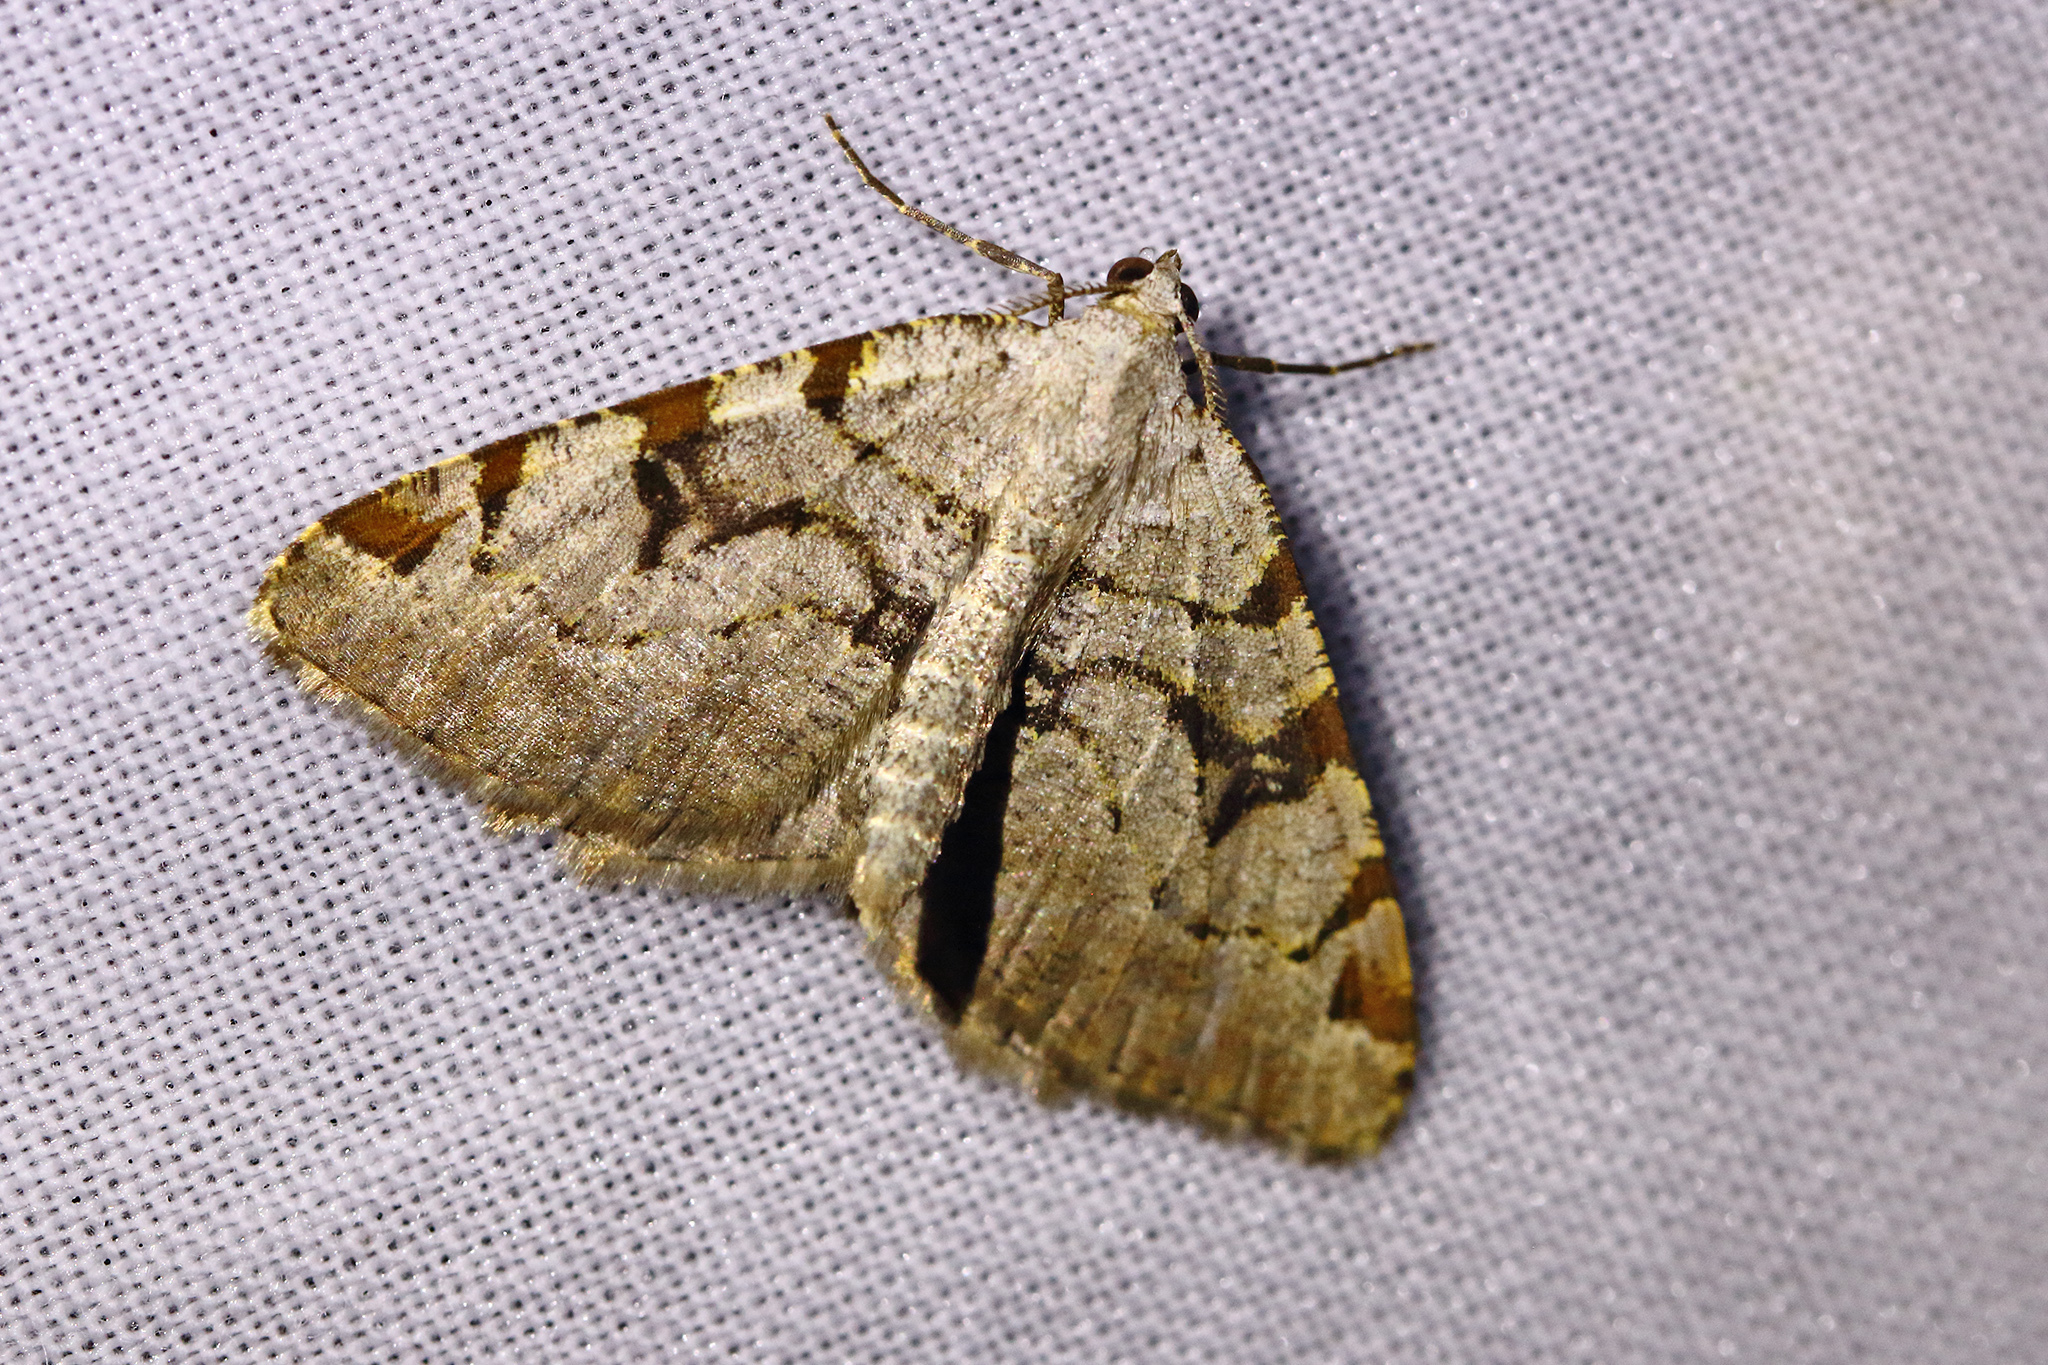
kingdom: Animalia
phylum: Arthropoda
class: Insecta
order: Lepidoptera
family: Geometridae
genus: Macaria
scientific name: Macaria wauaria
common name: V-moth
